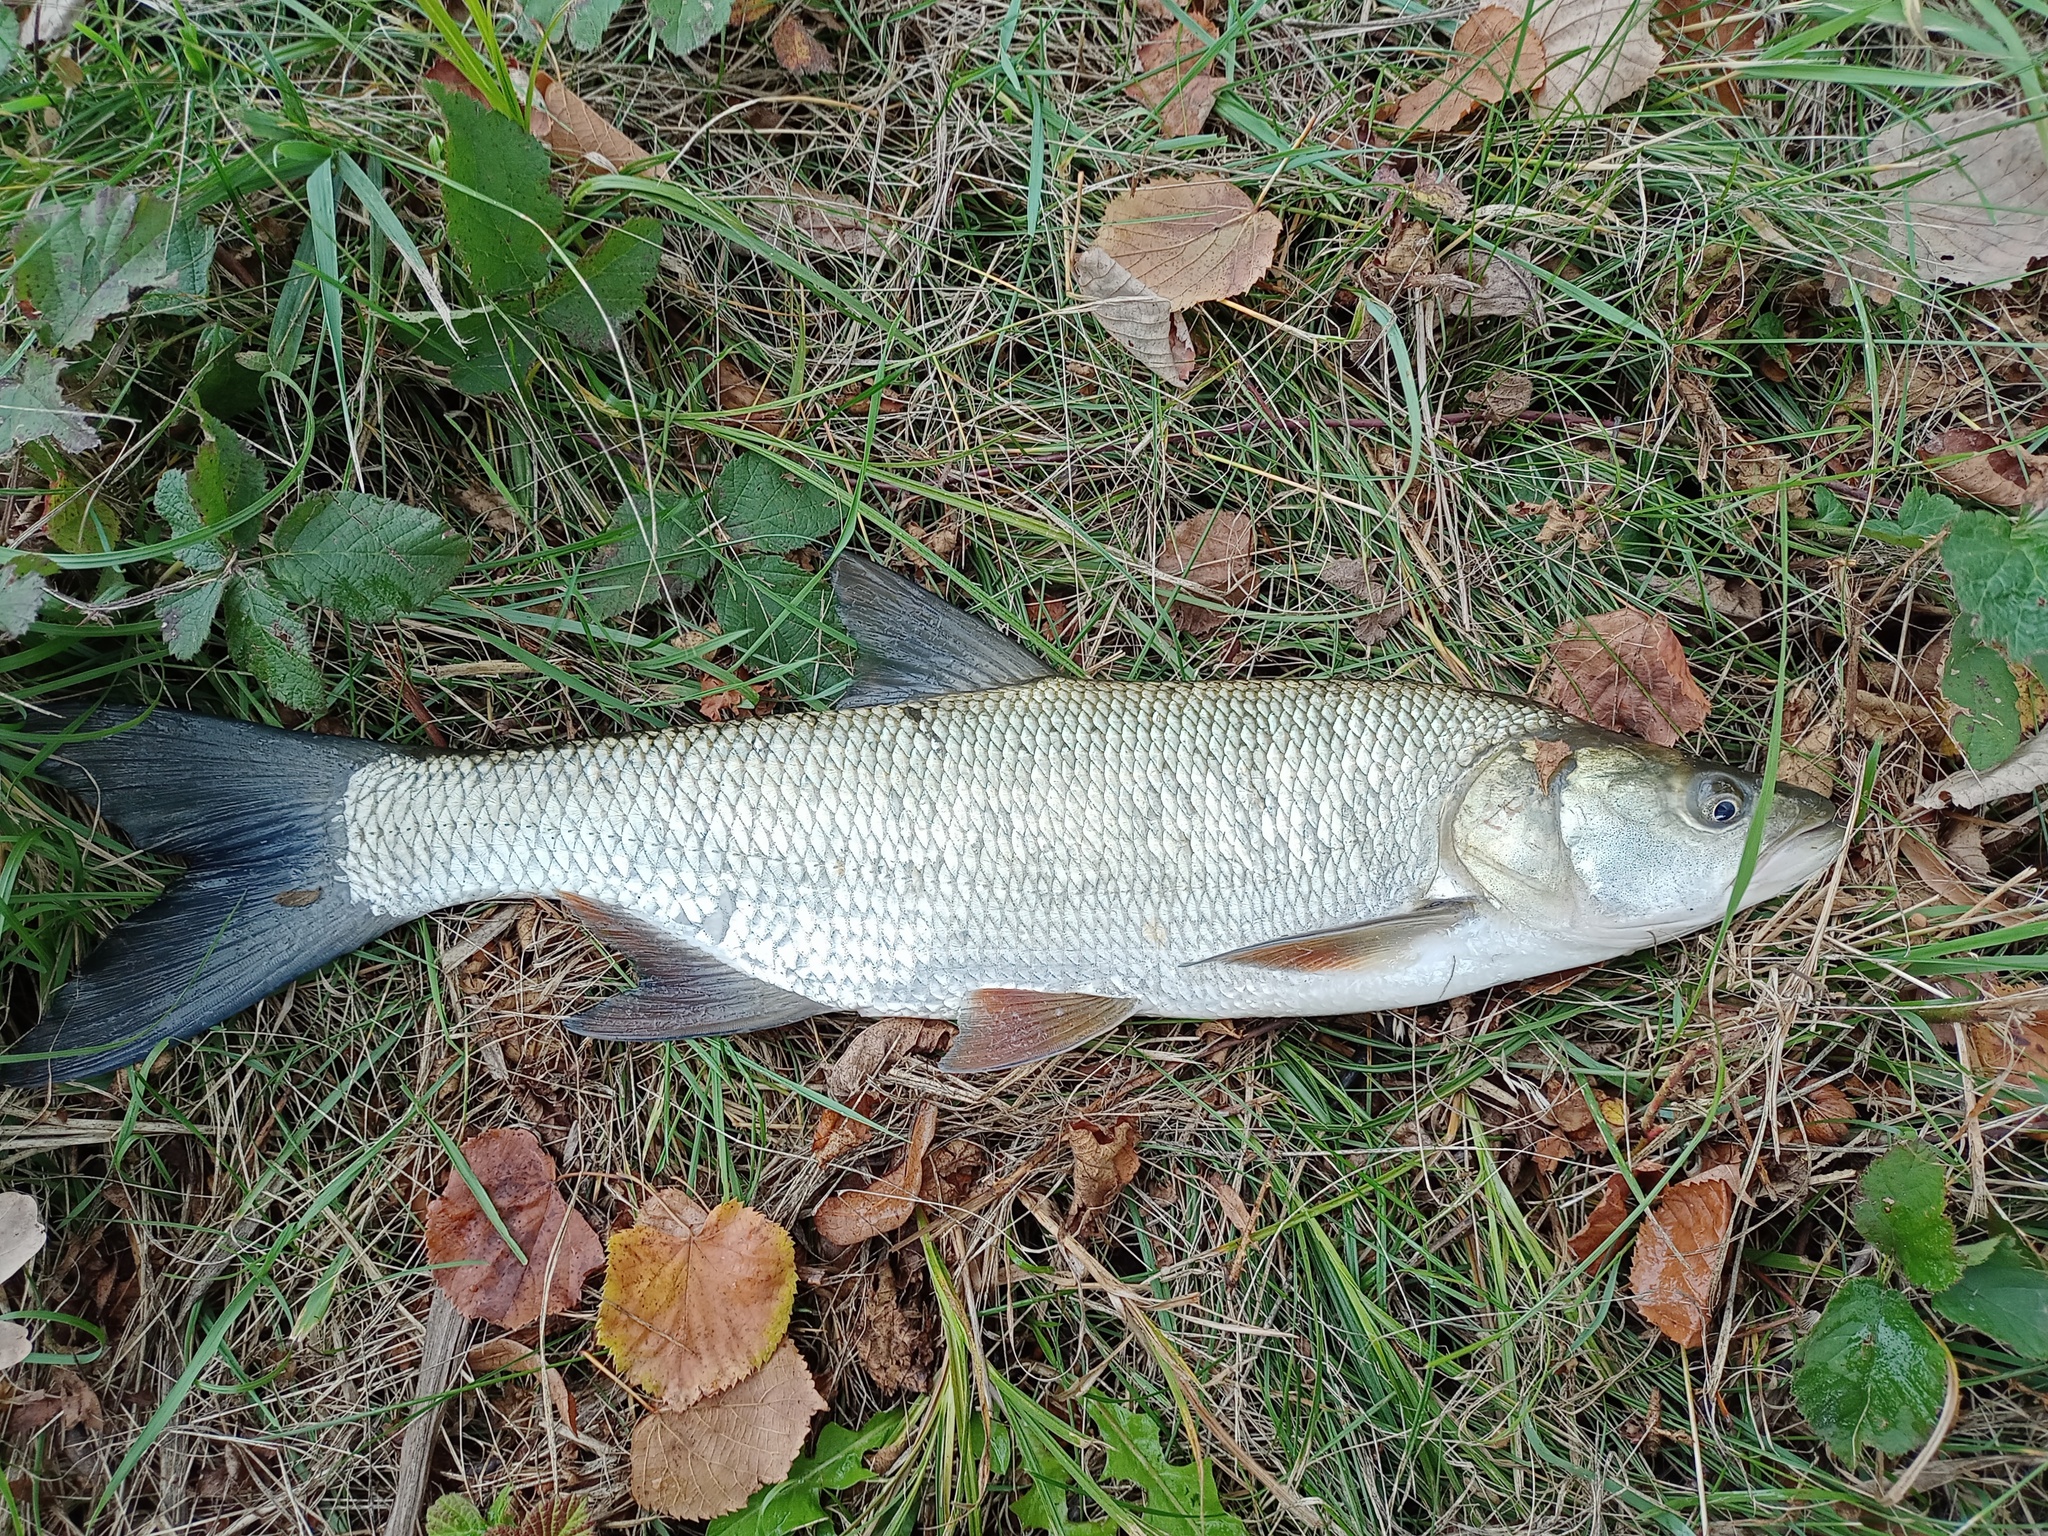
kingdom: Animalia
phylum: Chordata
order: Cypriniformes
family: Cyprinidae
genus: Leuciscus
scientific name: Leuciscus aspius
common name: Asp
